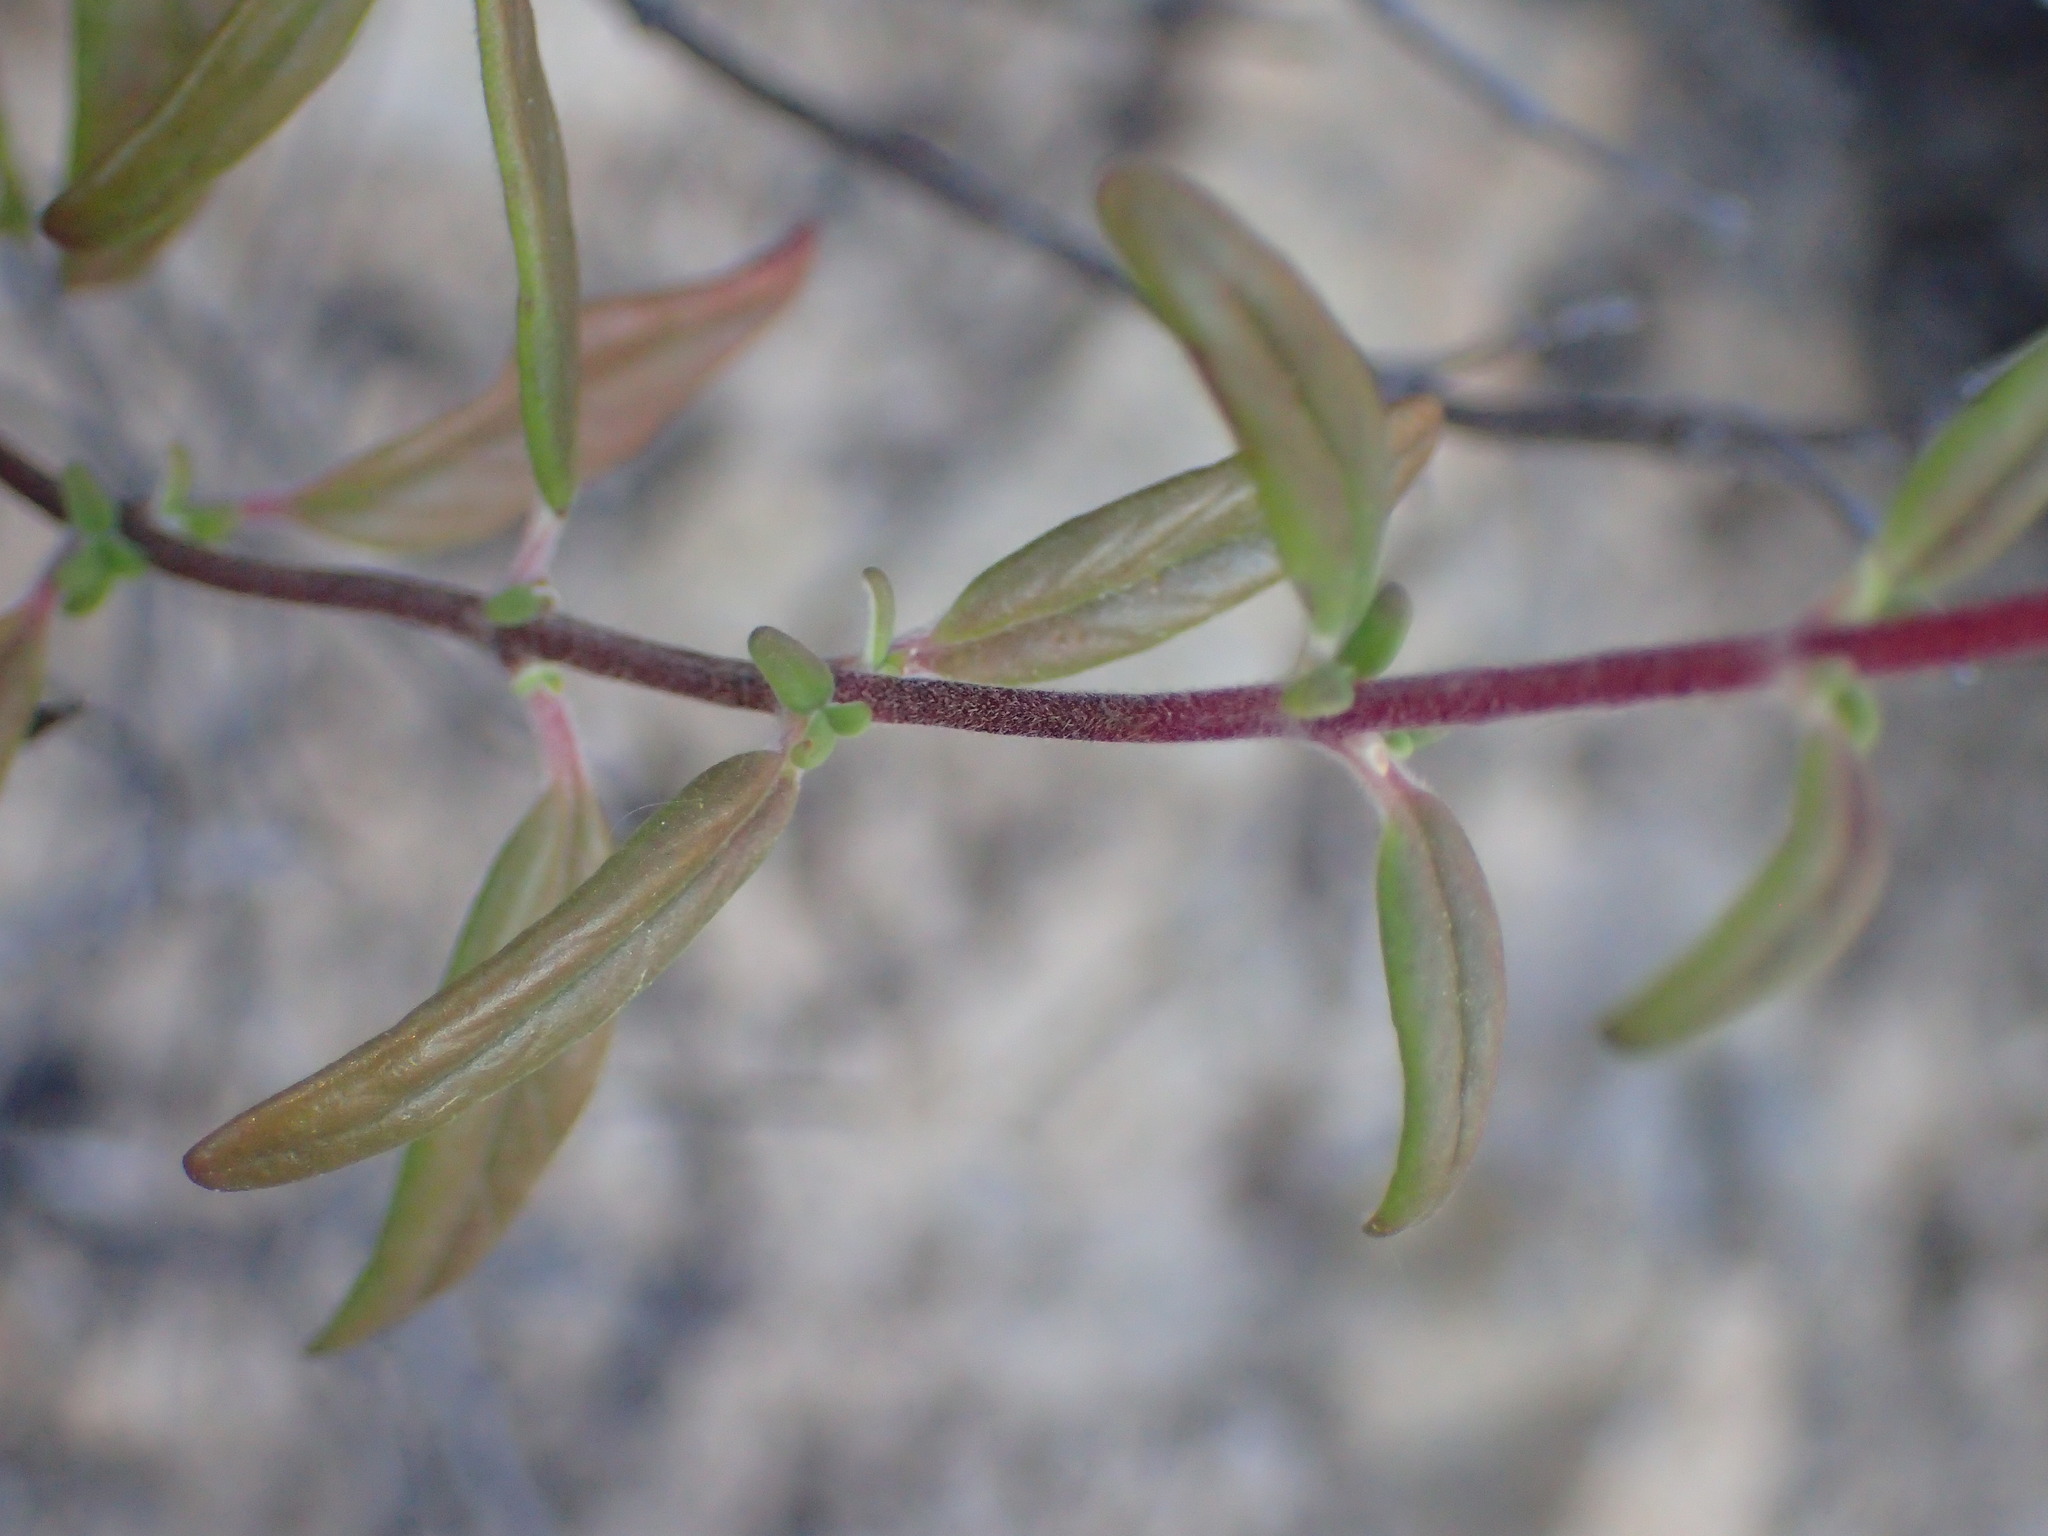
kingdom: Plantae
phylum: Tracheophyta
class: Magnoliopsida
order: Lamiales
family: Lamiaceae
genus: Monardella
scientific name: Monardella hypoleuca
